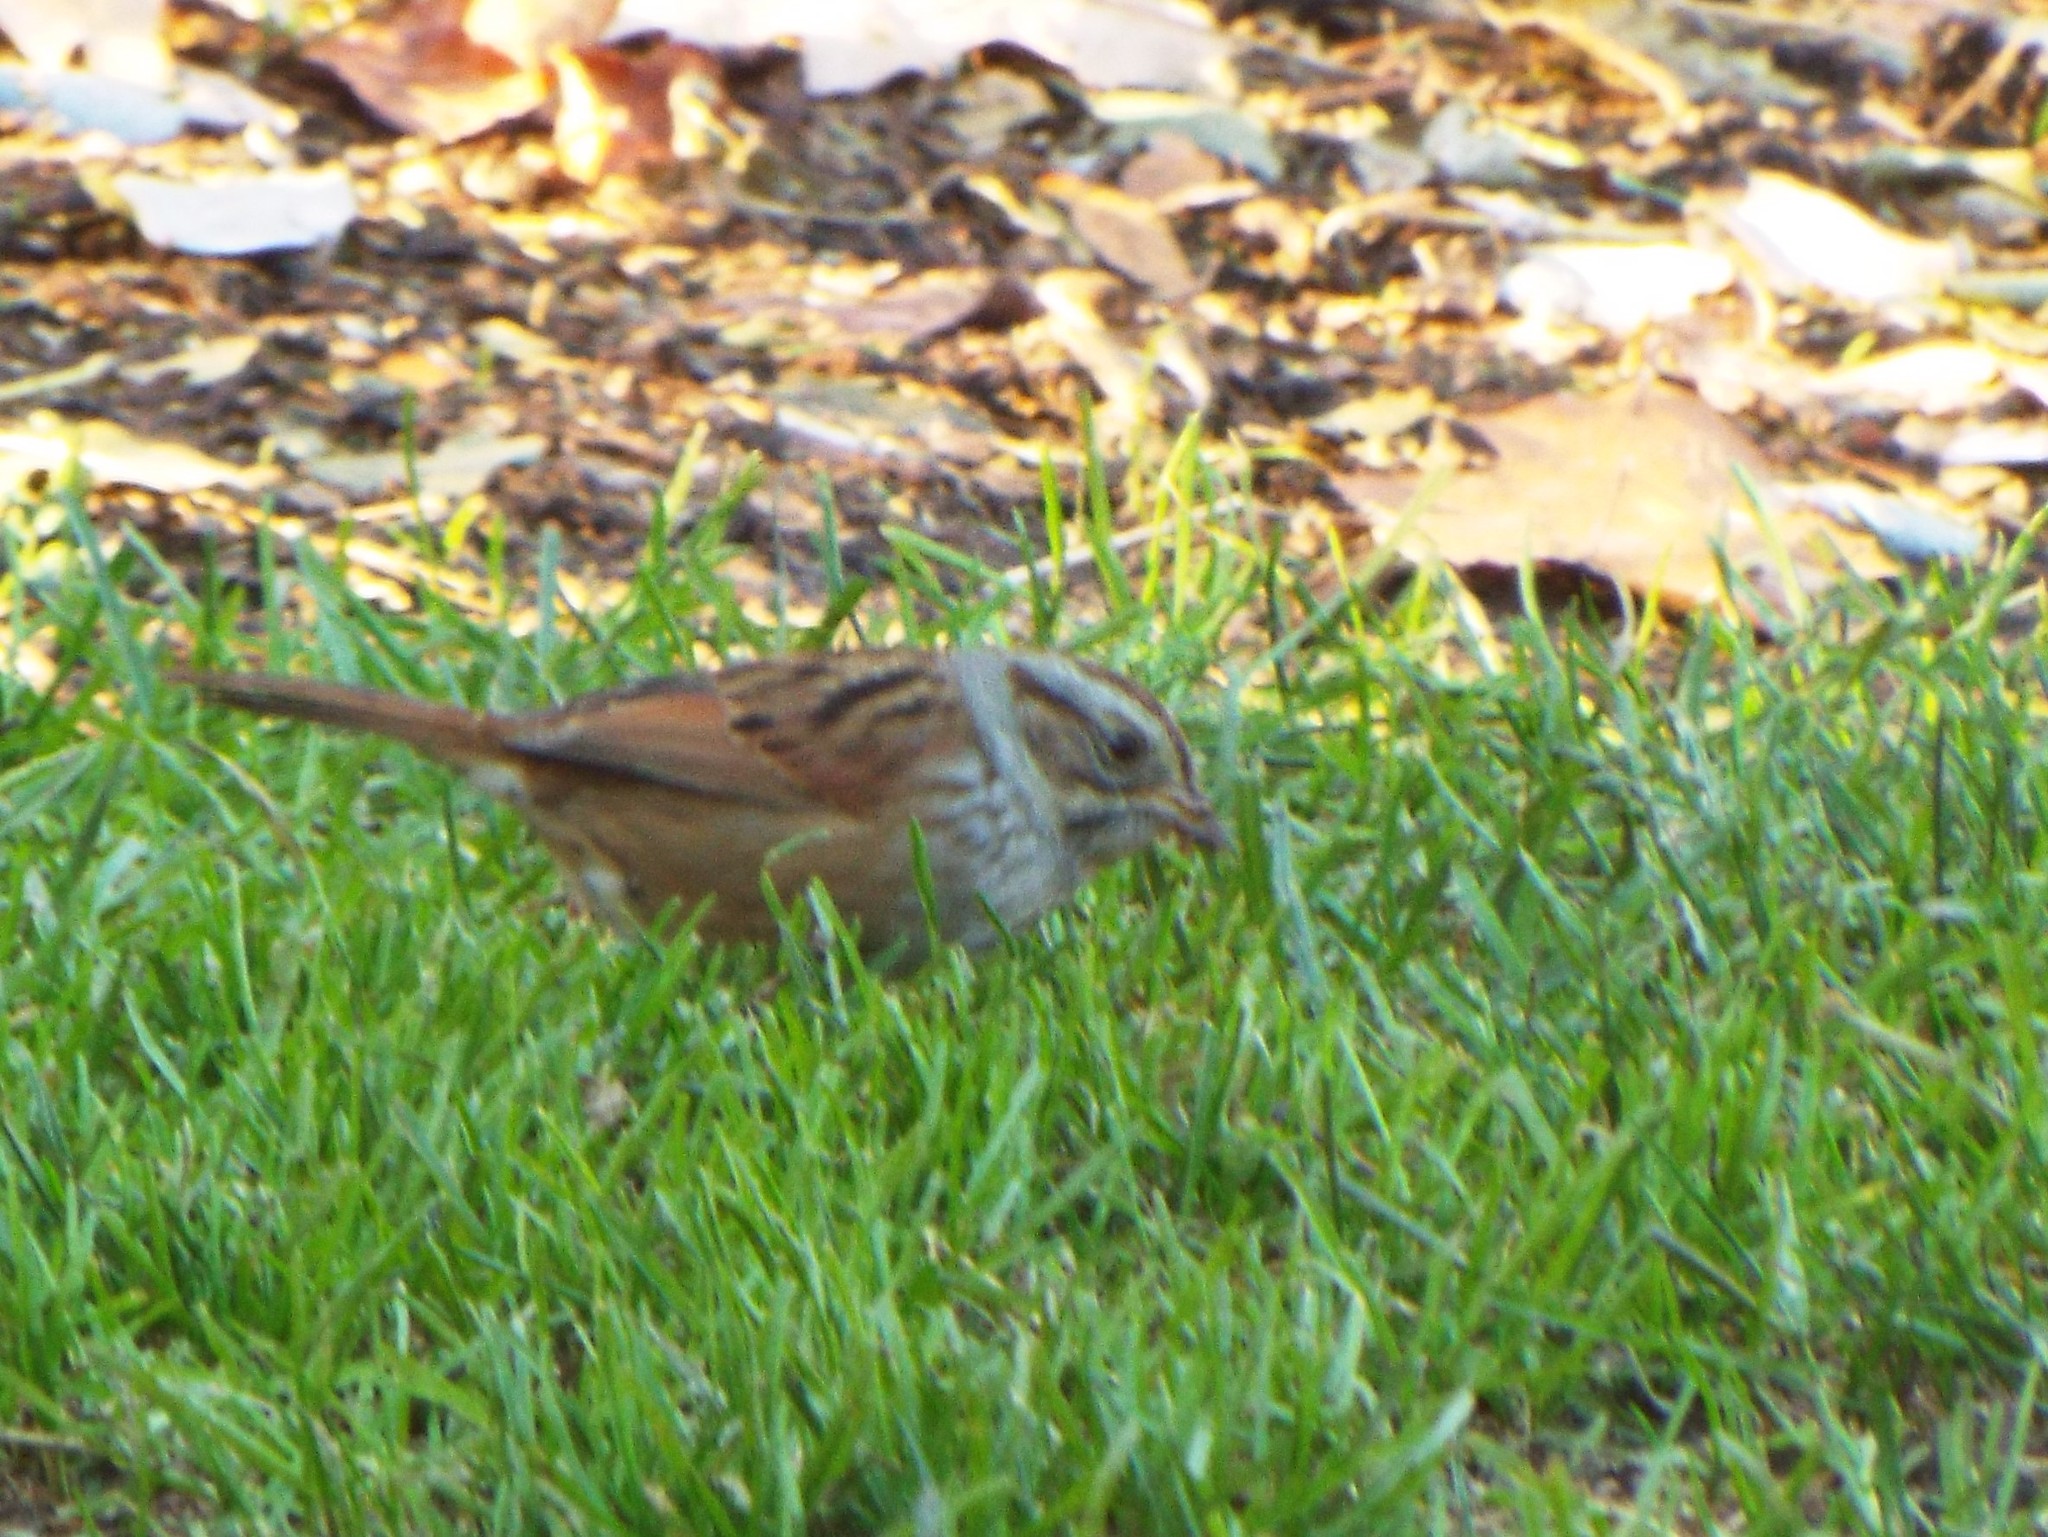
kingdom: Animalia
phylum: Chordata
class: Aves
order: Passeriformes
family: Passerellidae
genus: Melospiza
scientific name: Melospiza georgiana
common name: Swamp sparrow
